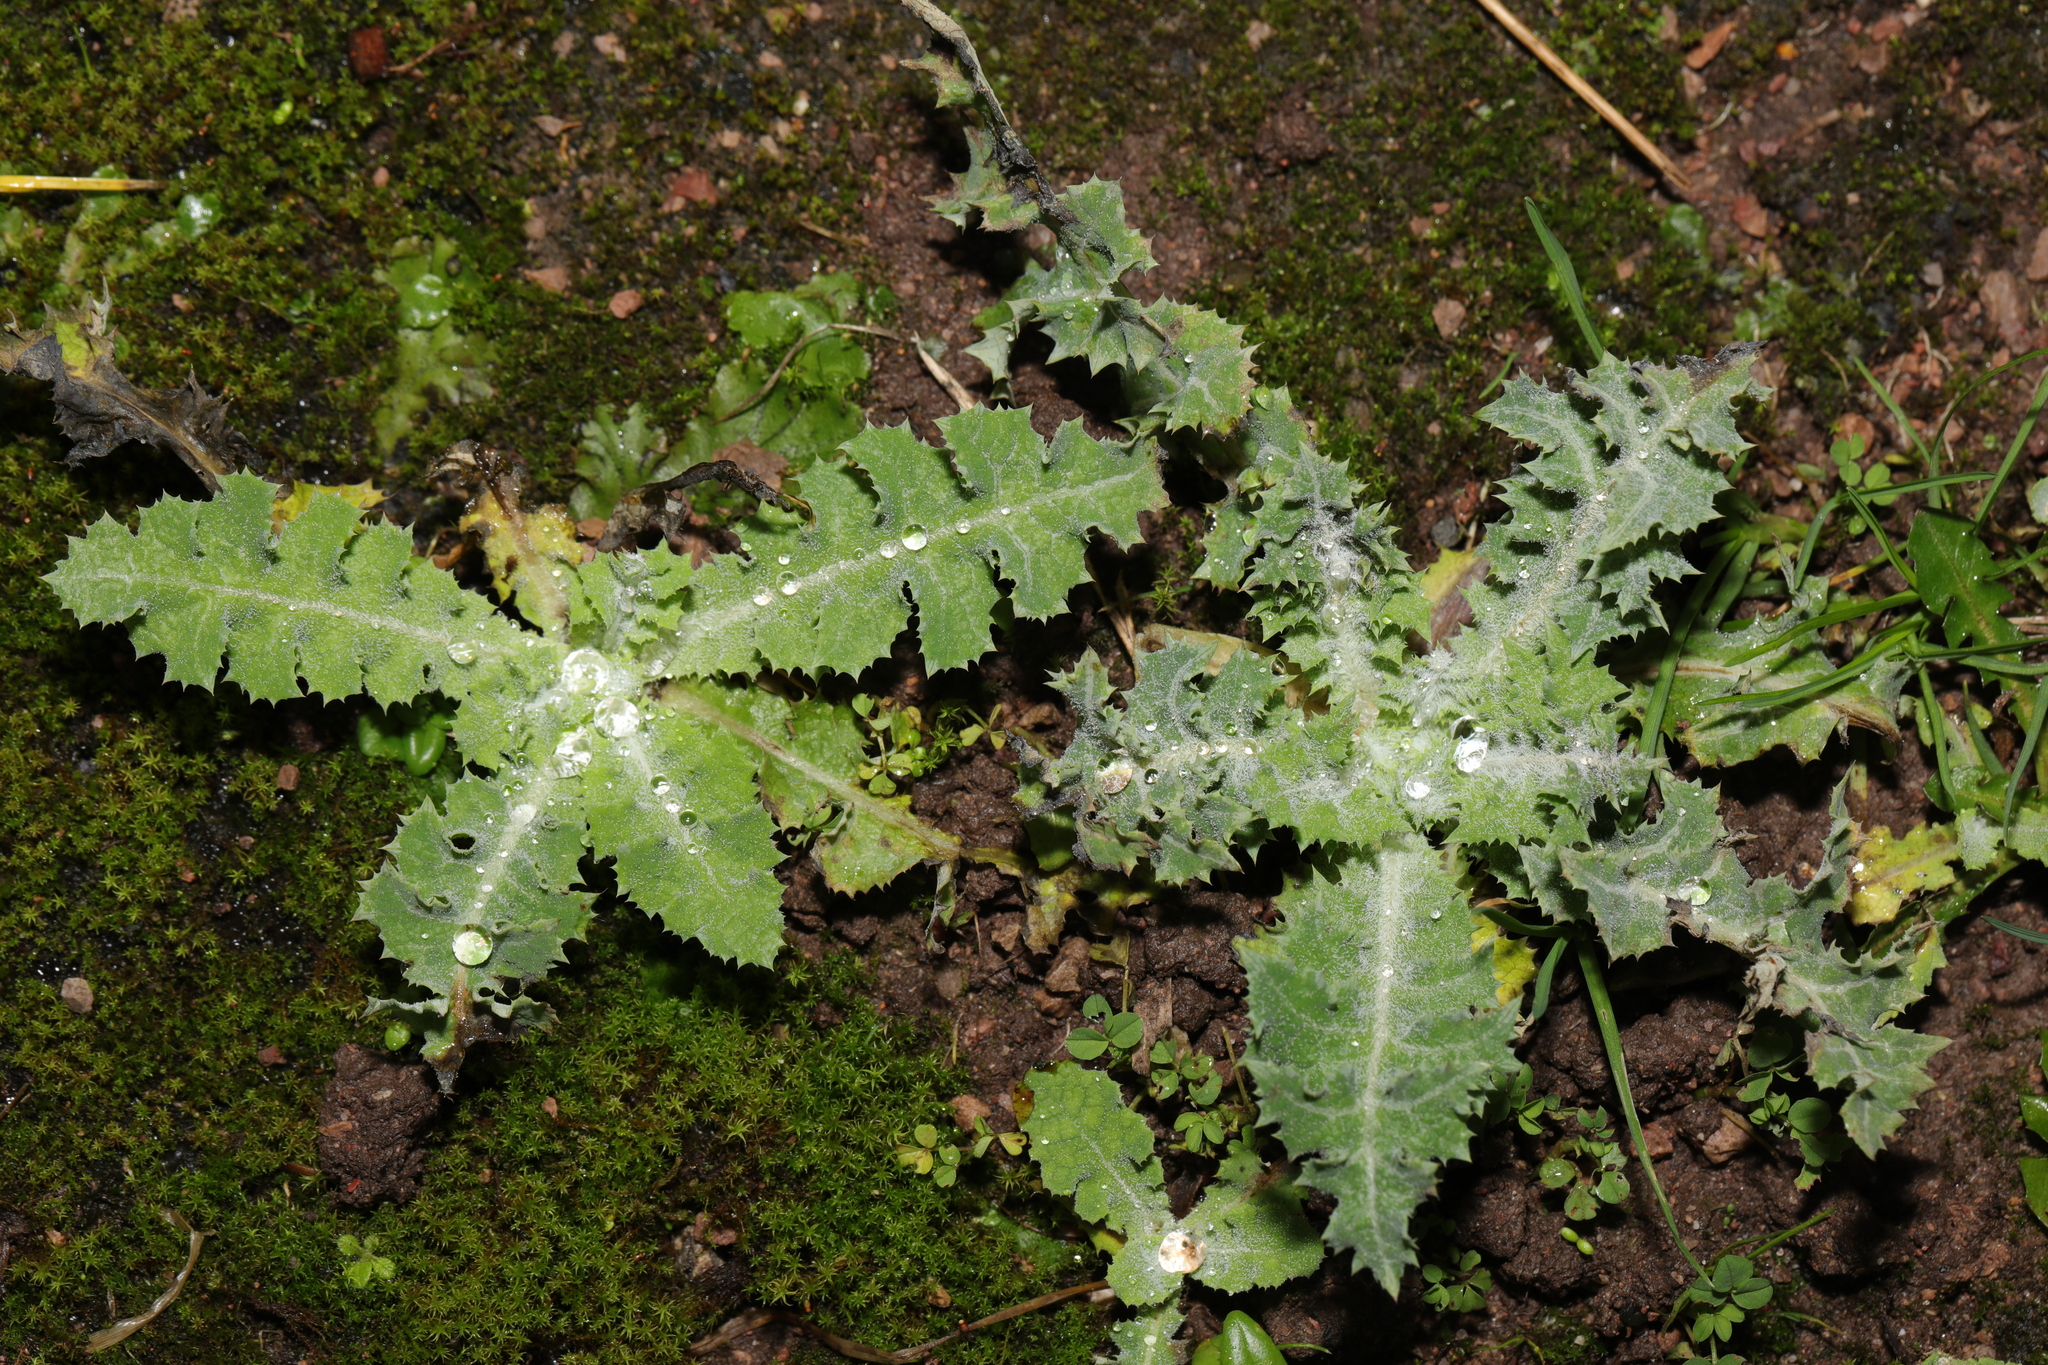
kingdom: Plantae
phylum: Tracheophyta
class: Magnoliopsida
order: Asterales
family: Asteraceae
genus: Sonchus
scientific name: Sonchus asper
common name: Prickly sow-thistle
